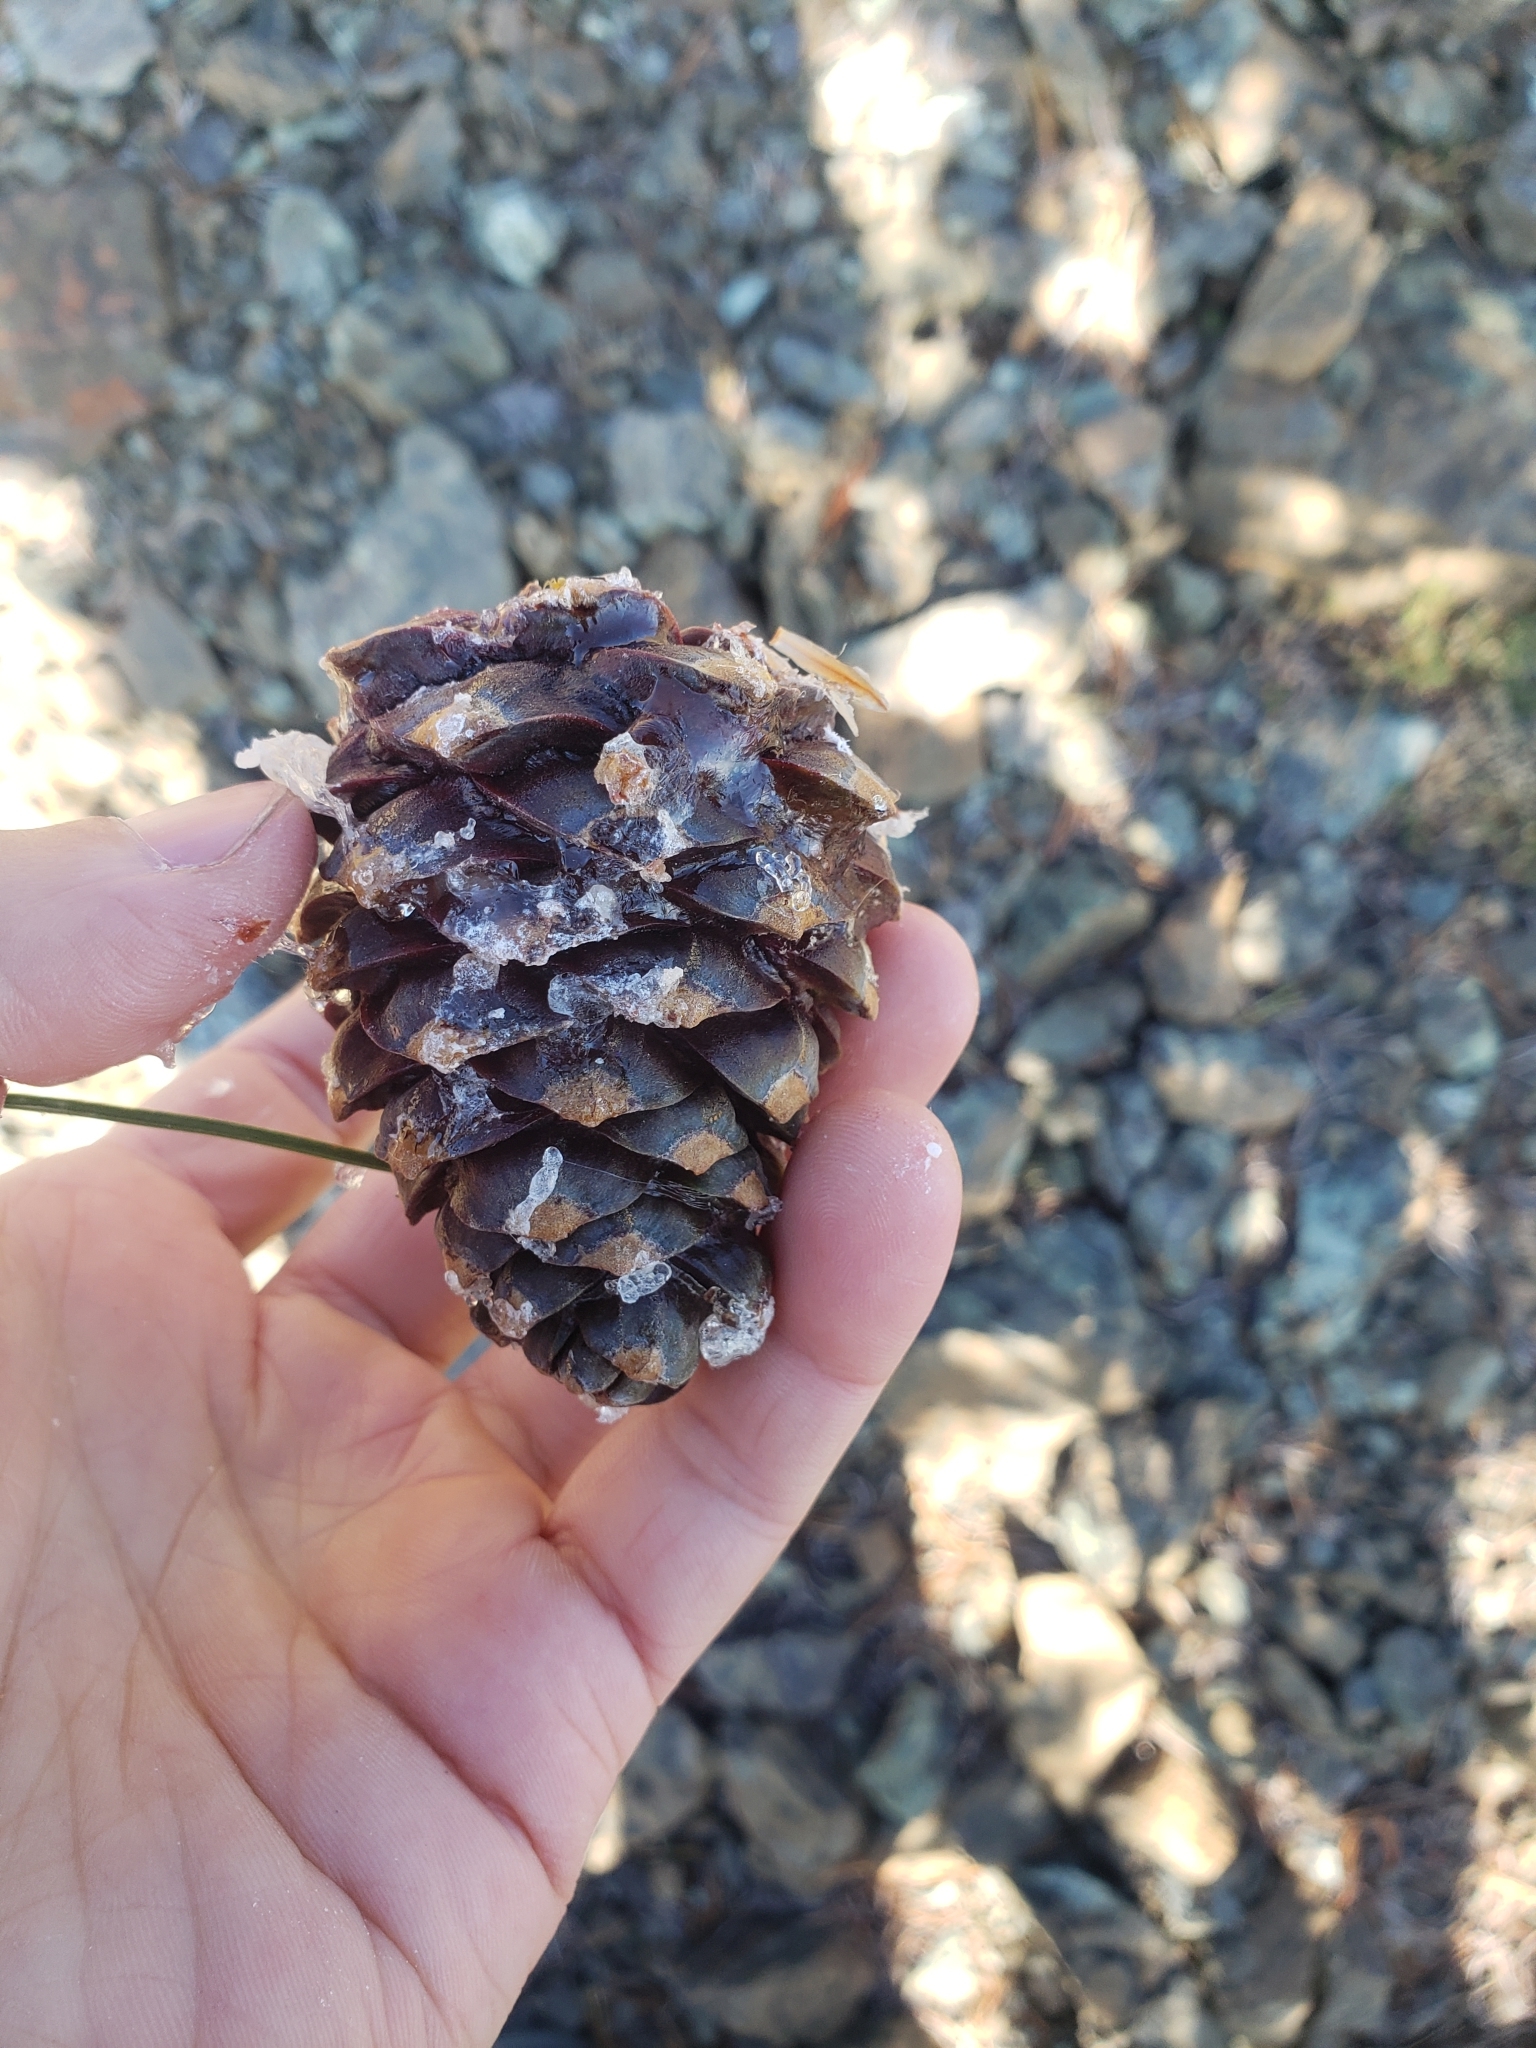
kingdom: Plantae
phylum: Tracheophyta
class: Pinopsida
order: Pinales
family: Pinaceae
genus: Pinus
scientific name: Pinus albicaulis
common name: Whitebark pine
